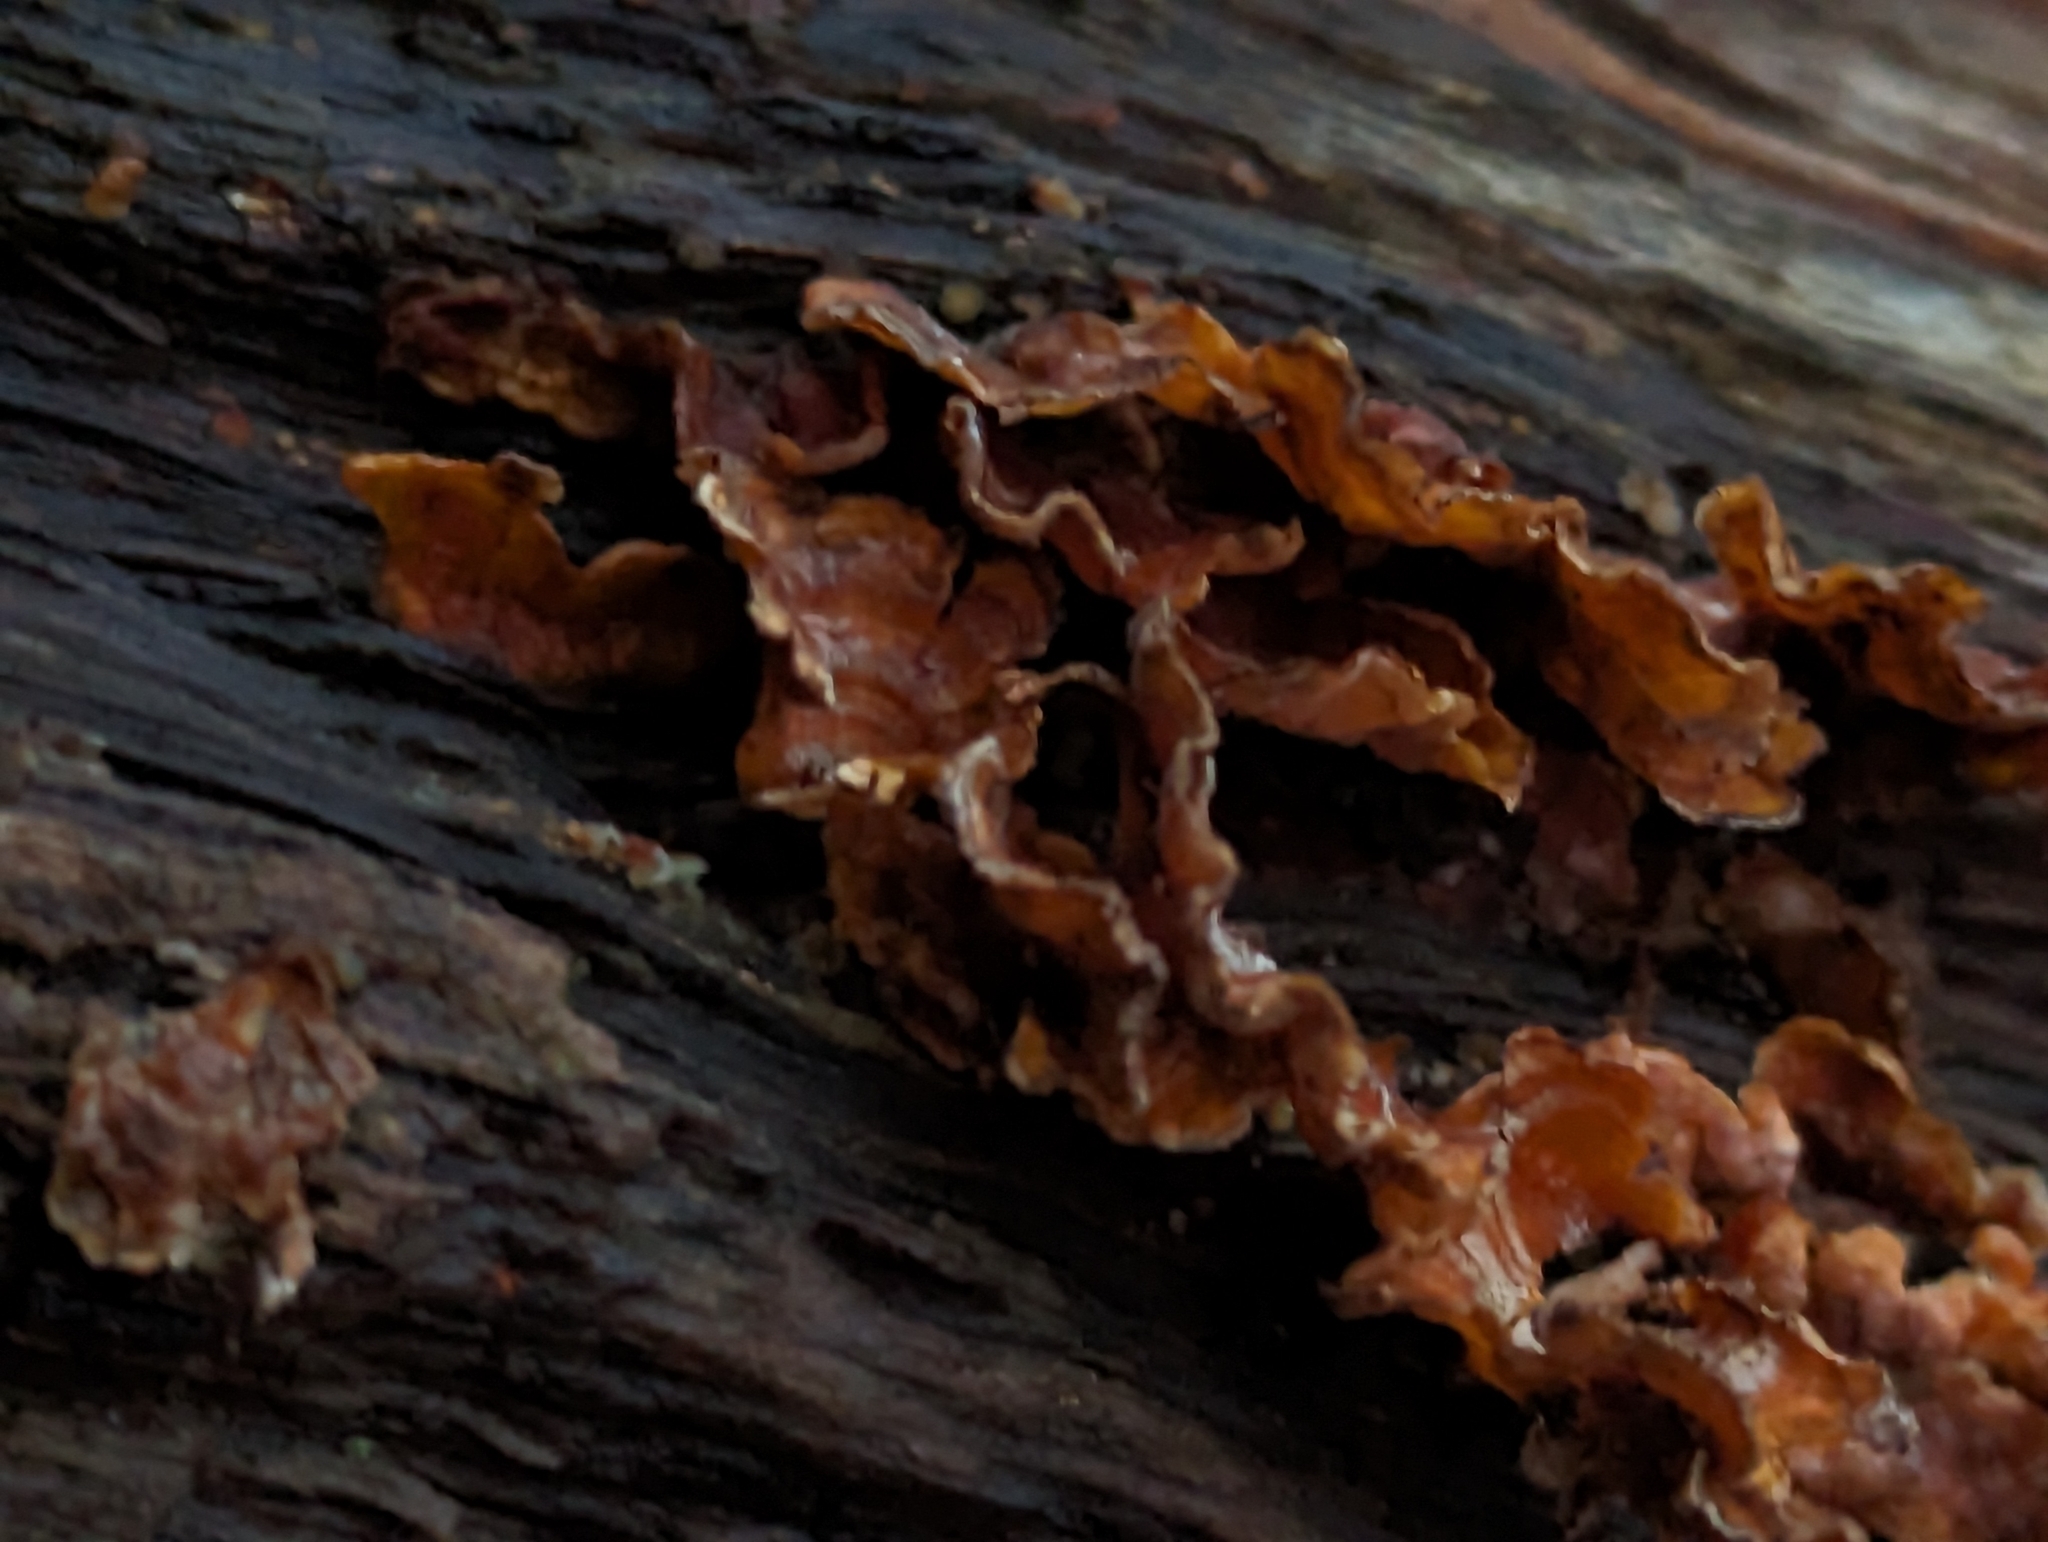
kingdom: Fungi
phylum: Basidiomycota
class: Agaricomycetes
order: Russulales
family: Stereaceae
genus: Stereum
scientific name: Stereum complicatum
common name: Crowded parchment
